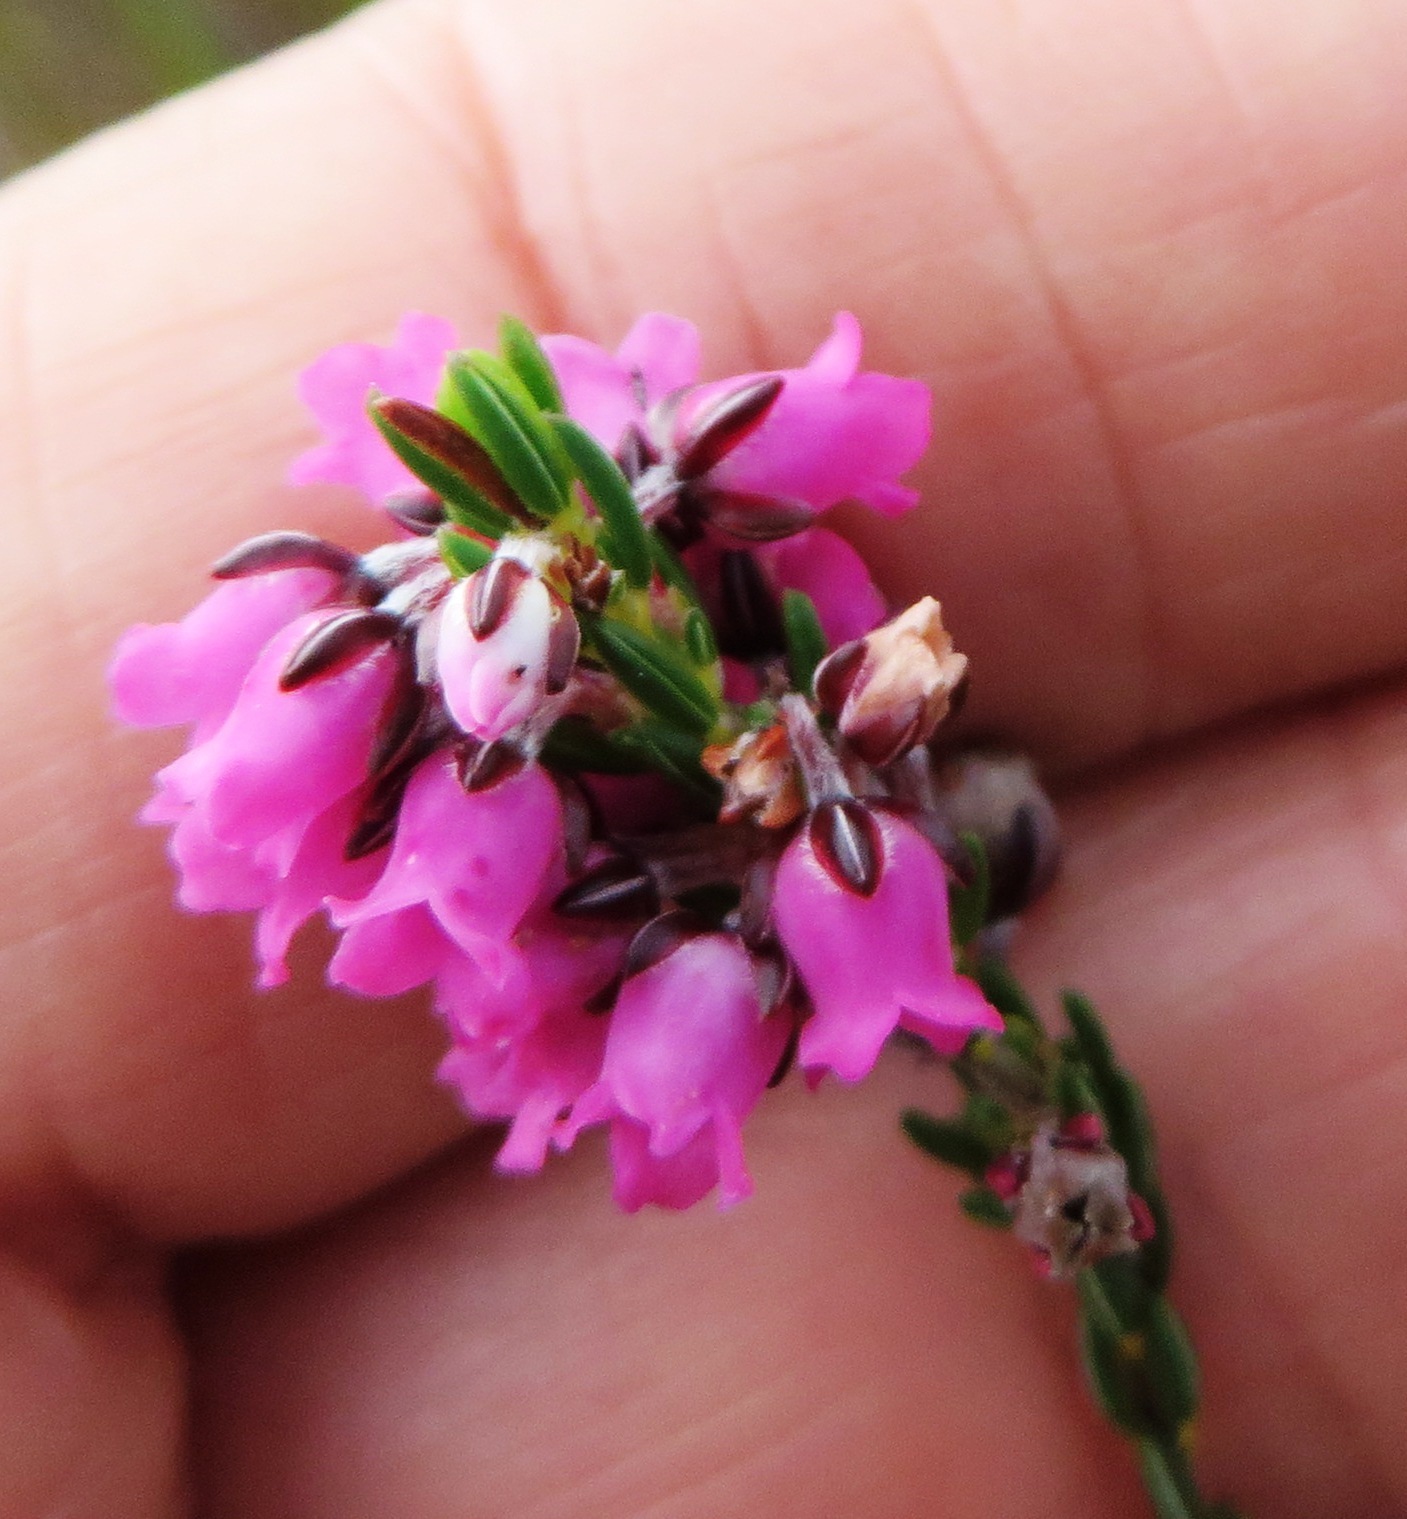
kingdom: Plantae
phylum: Tracheophyta
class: Magnoliopsida
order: Ericales
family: Ericaceae
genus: Erica
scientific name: Erica pulchella
